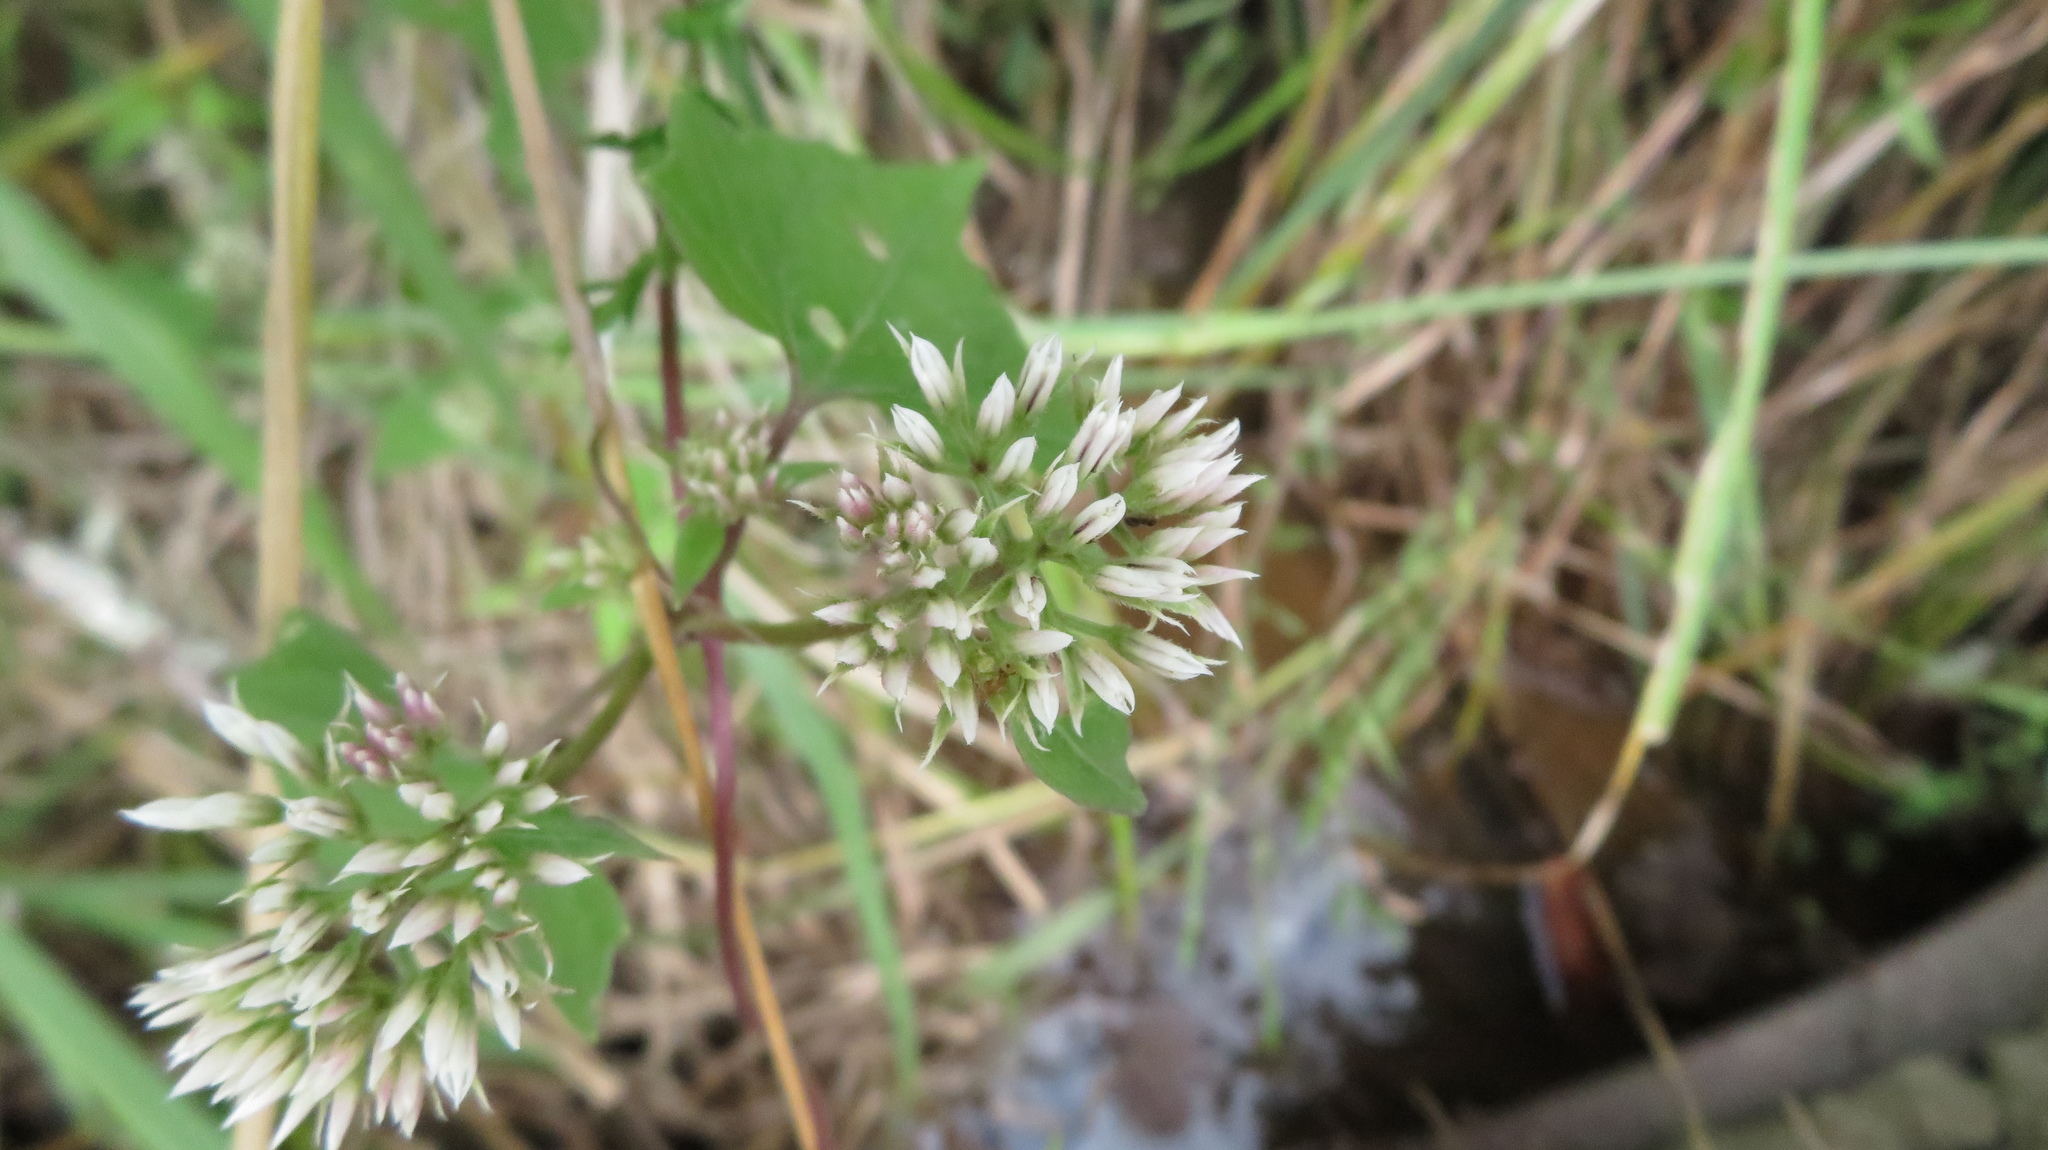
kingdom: Plantae
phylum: Tracheophyta
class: Magnoliopsida
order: Asterales
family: Asteraceae
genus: Mikania
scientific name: Mikania scandens
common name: Climbing hempvine
